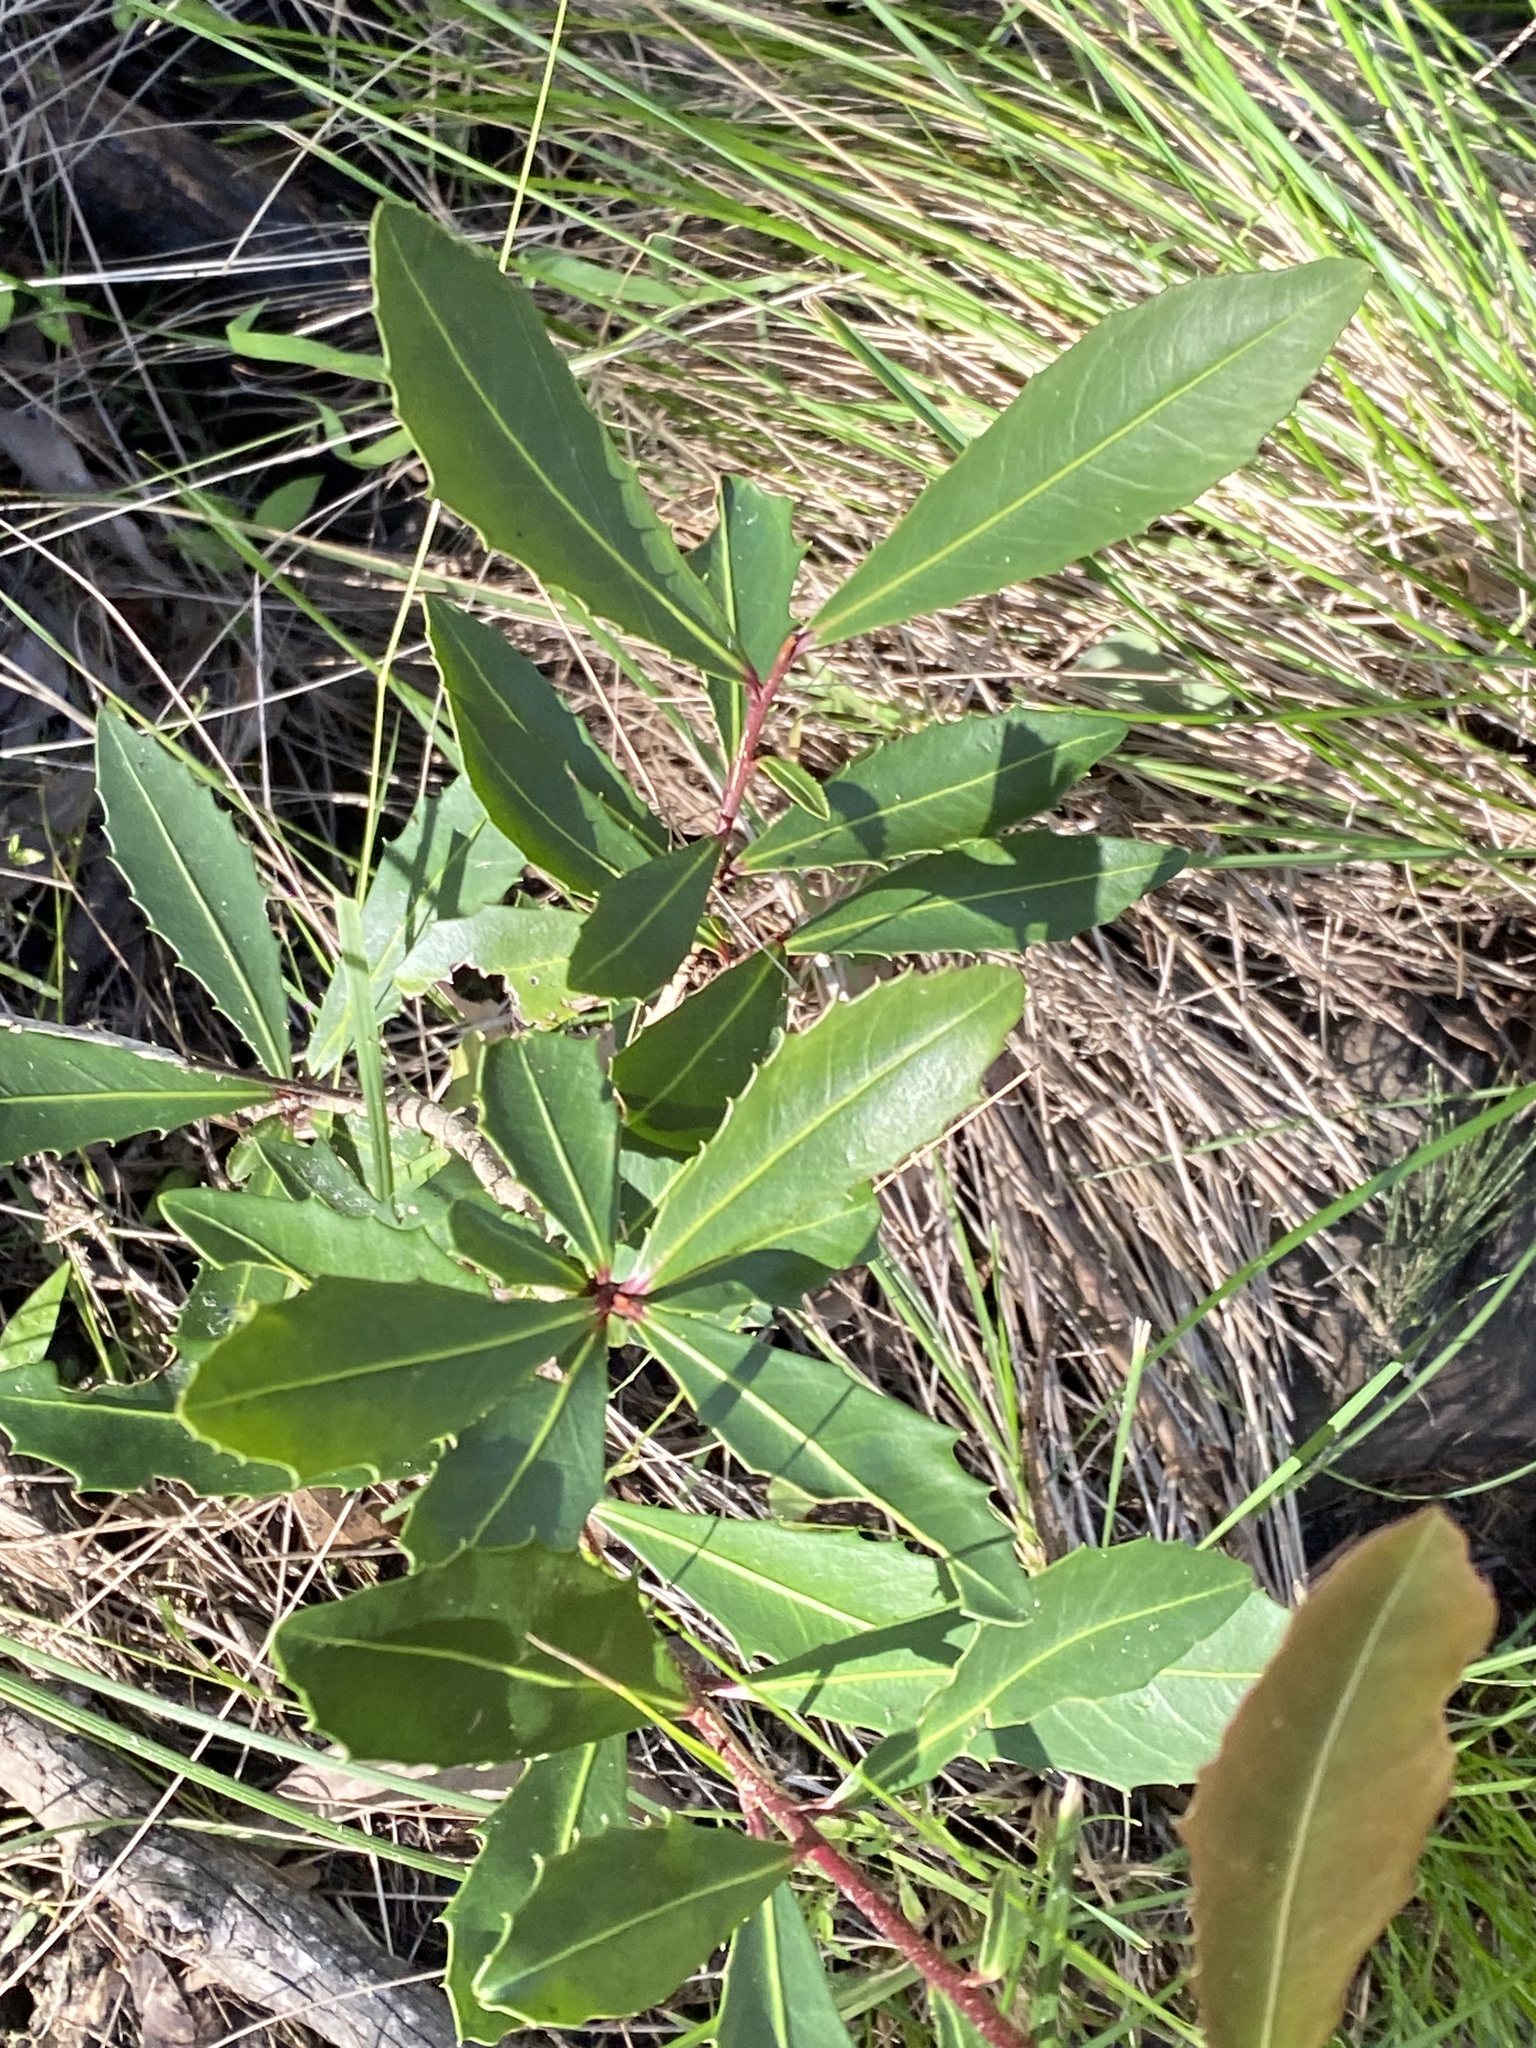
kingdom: Plantae
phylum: Tracheophyta
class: Magnoliopsida
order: Ericales
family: Primulaceae
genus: Myrsine
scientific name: Myrsine variabilis
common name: Brush muttonwood
